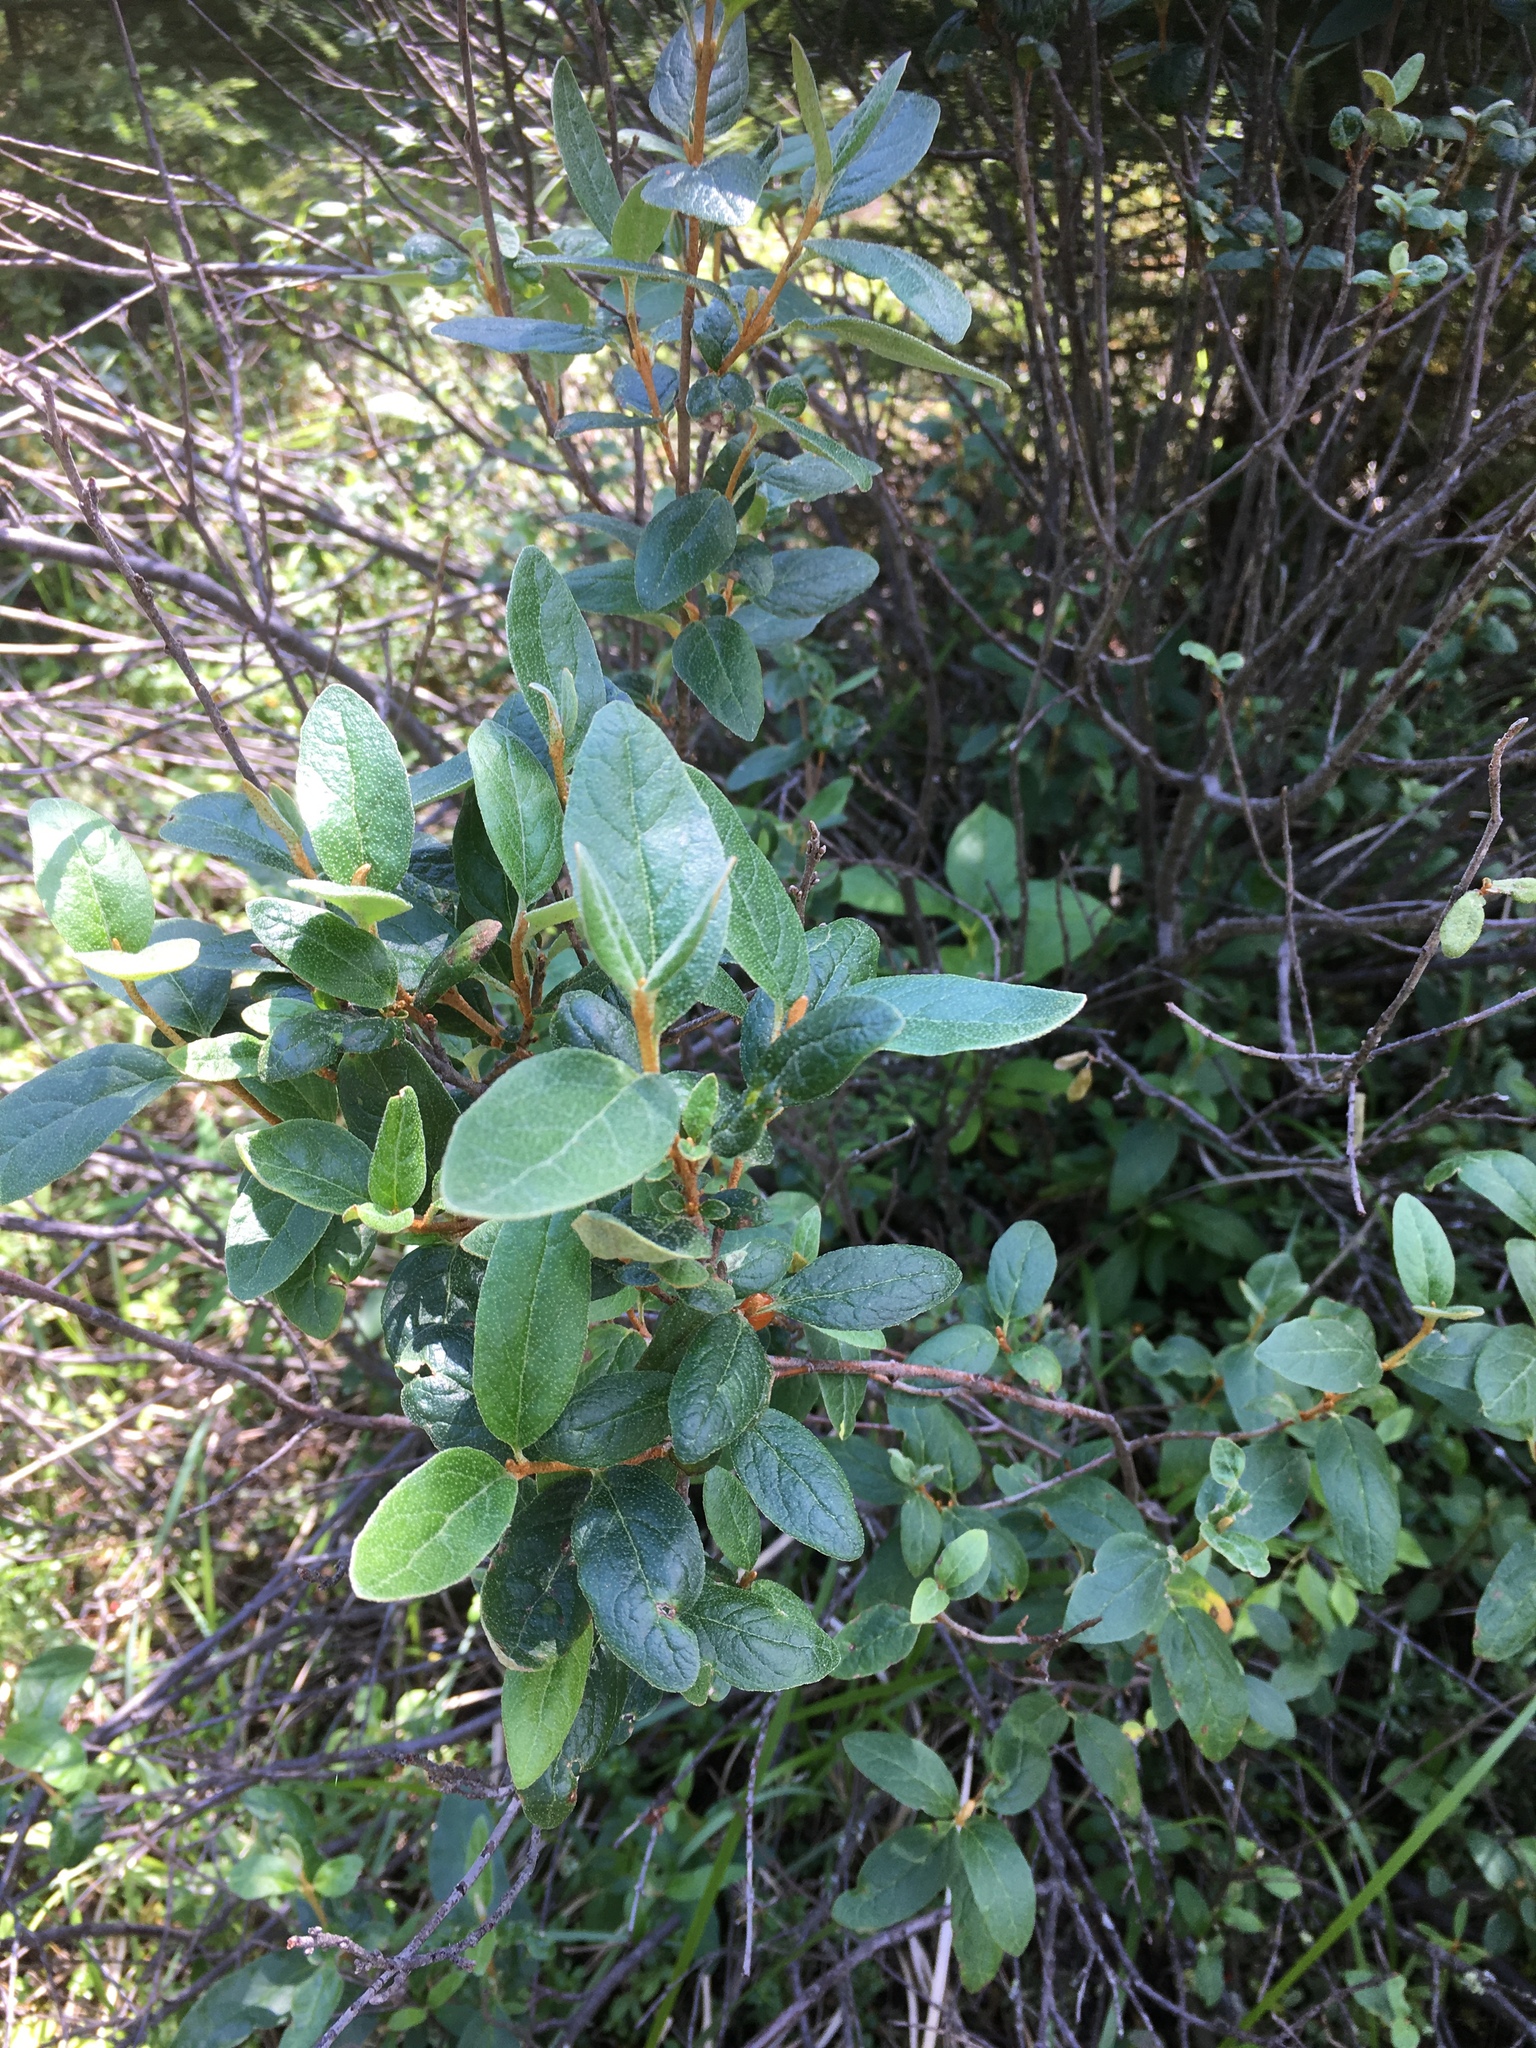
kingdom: Plantae
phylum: Tracheophyta
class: Magnoliopsida
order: Rosales
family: Elaeagnaceae
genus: Shepherdia
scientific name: Shepherdia canadensis
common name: Soapberry
